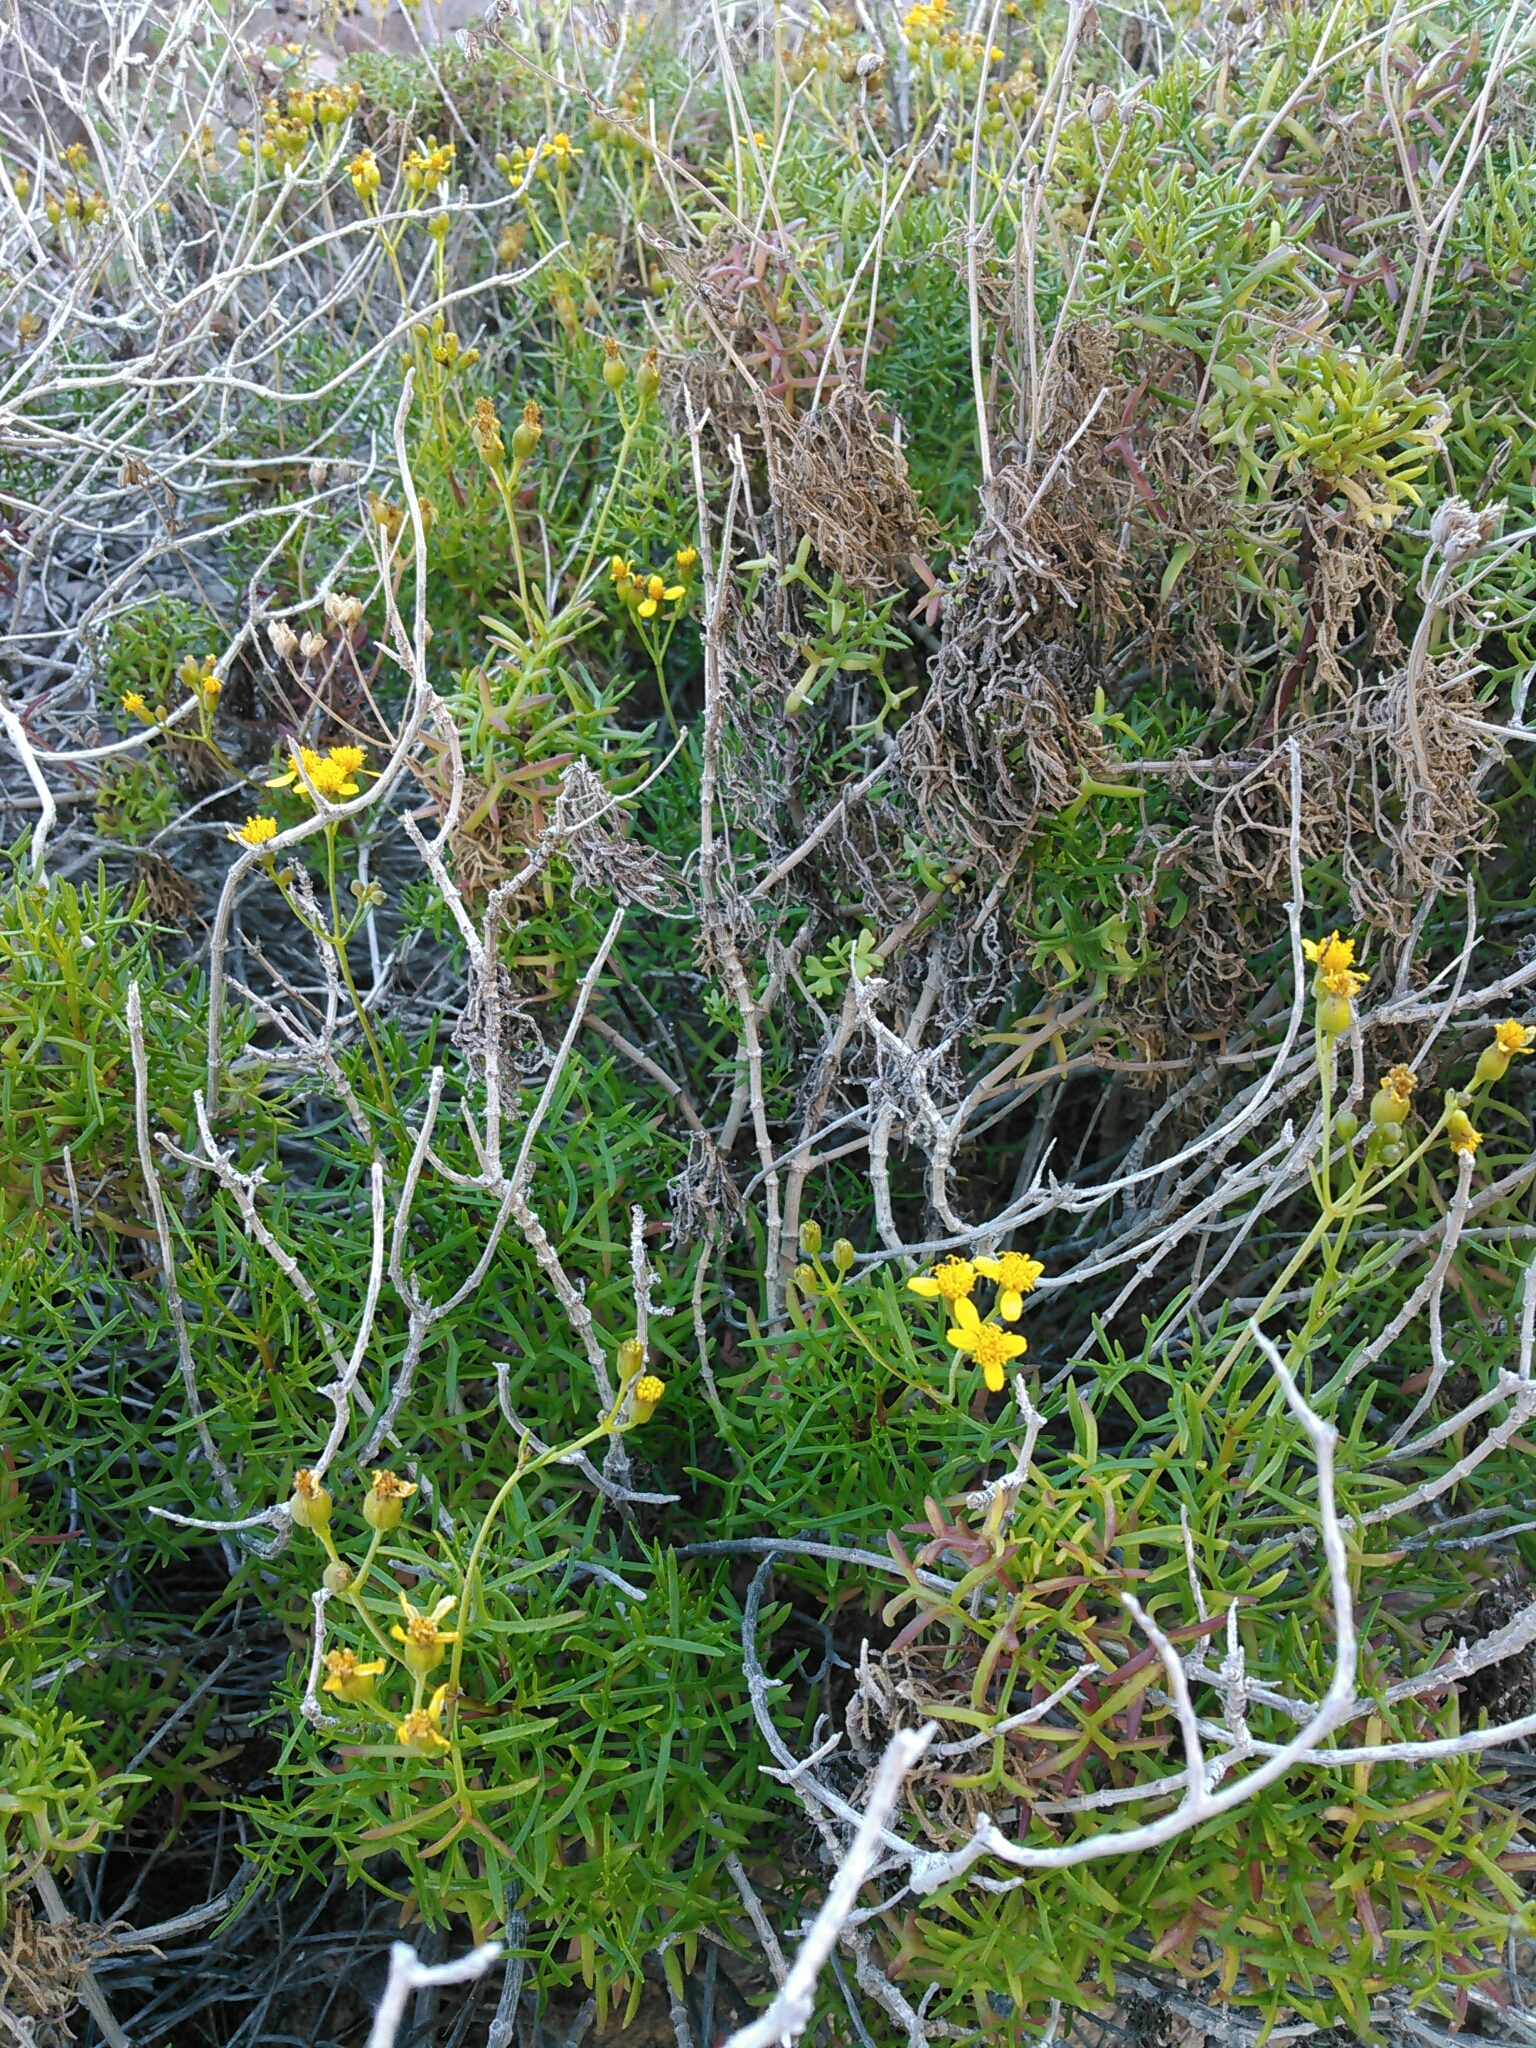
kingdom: Plantae
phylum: Tracheophyta
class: Magnoliopsida
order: Asterales
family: Asteraceae
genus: Coreocarpus
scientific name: Coreocarpus dissectus
